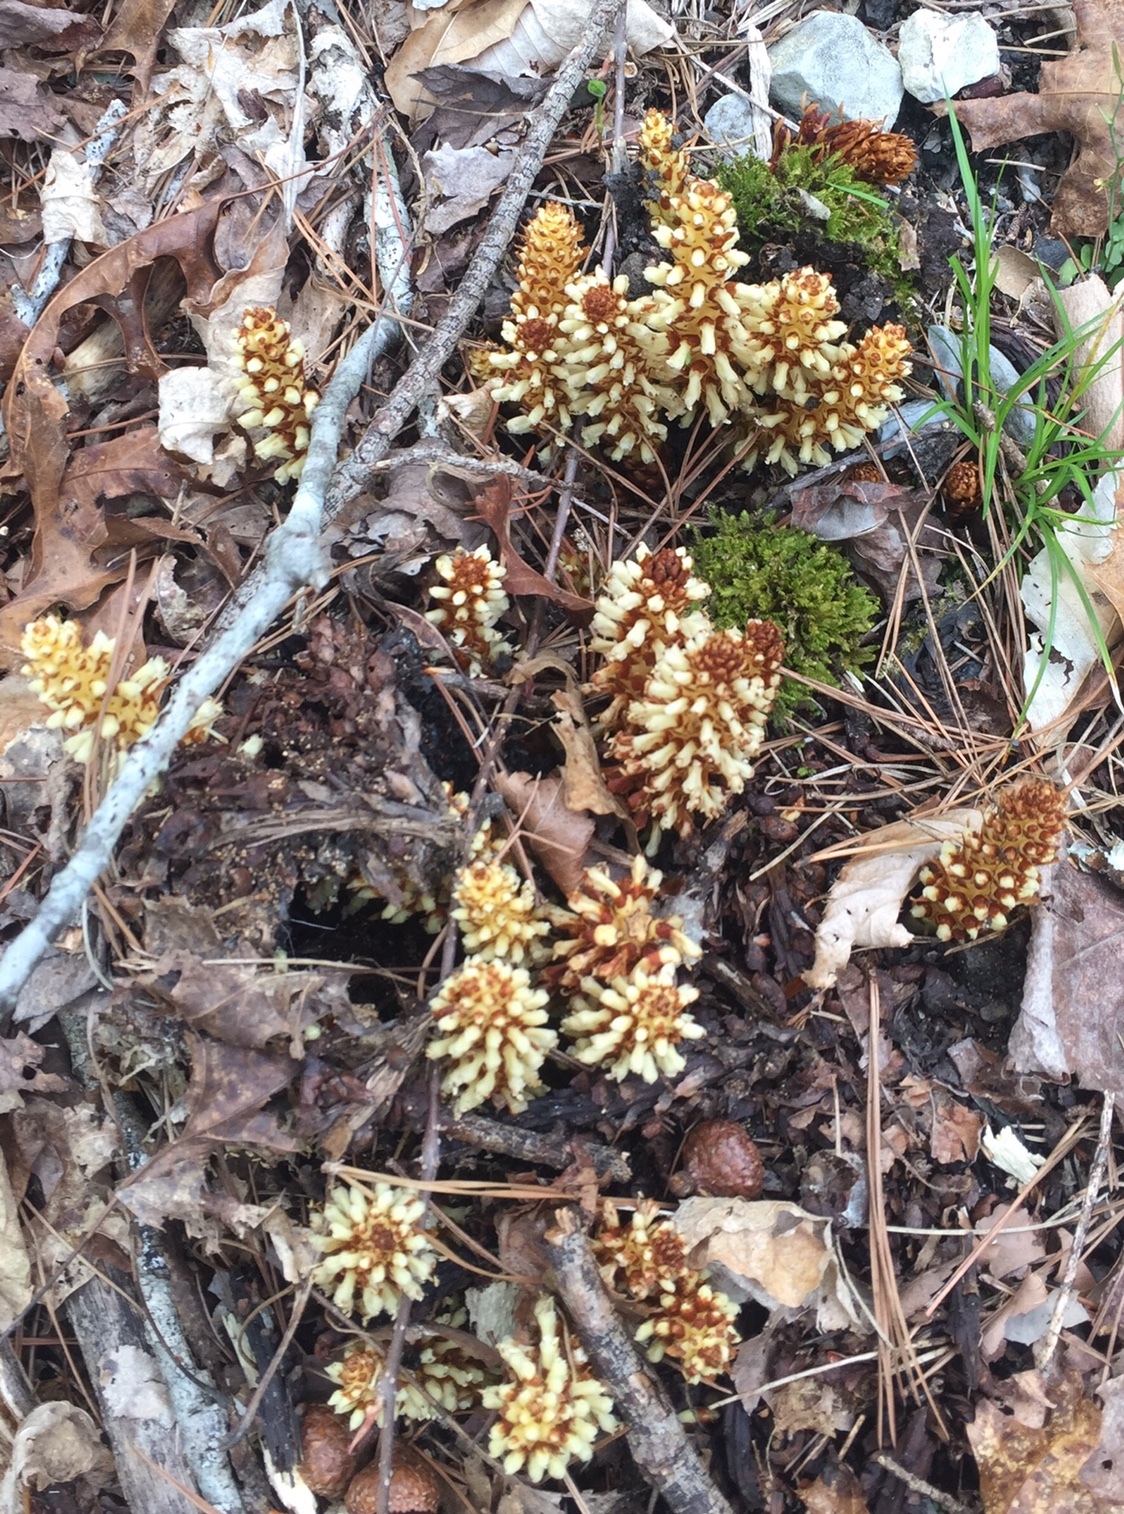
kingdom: Plantae
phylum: Tracheophyta
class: Magnoliopsida
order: Lamiales
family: Orobanchaceae
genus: Conopholis
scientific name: Conopholis americana
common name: American cancer-root
